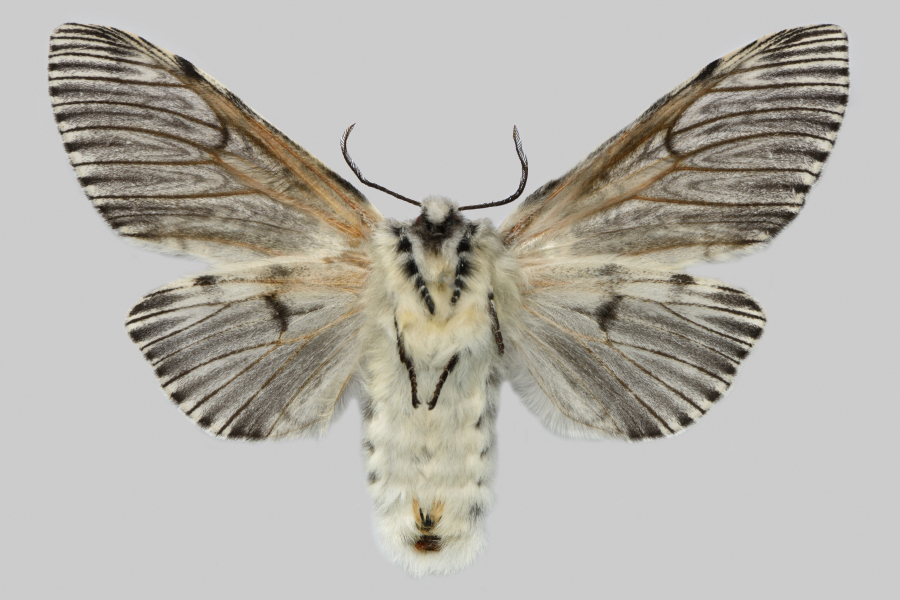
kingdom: Animalia
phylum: Arthropoda
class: Insecta
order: Lepidoptera
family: Notodontidae
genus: Cerura
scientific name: Cerura felina
